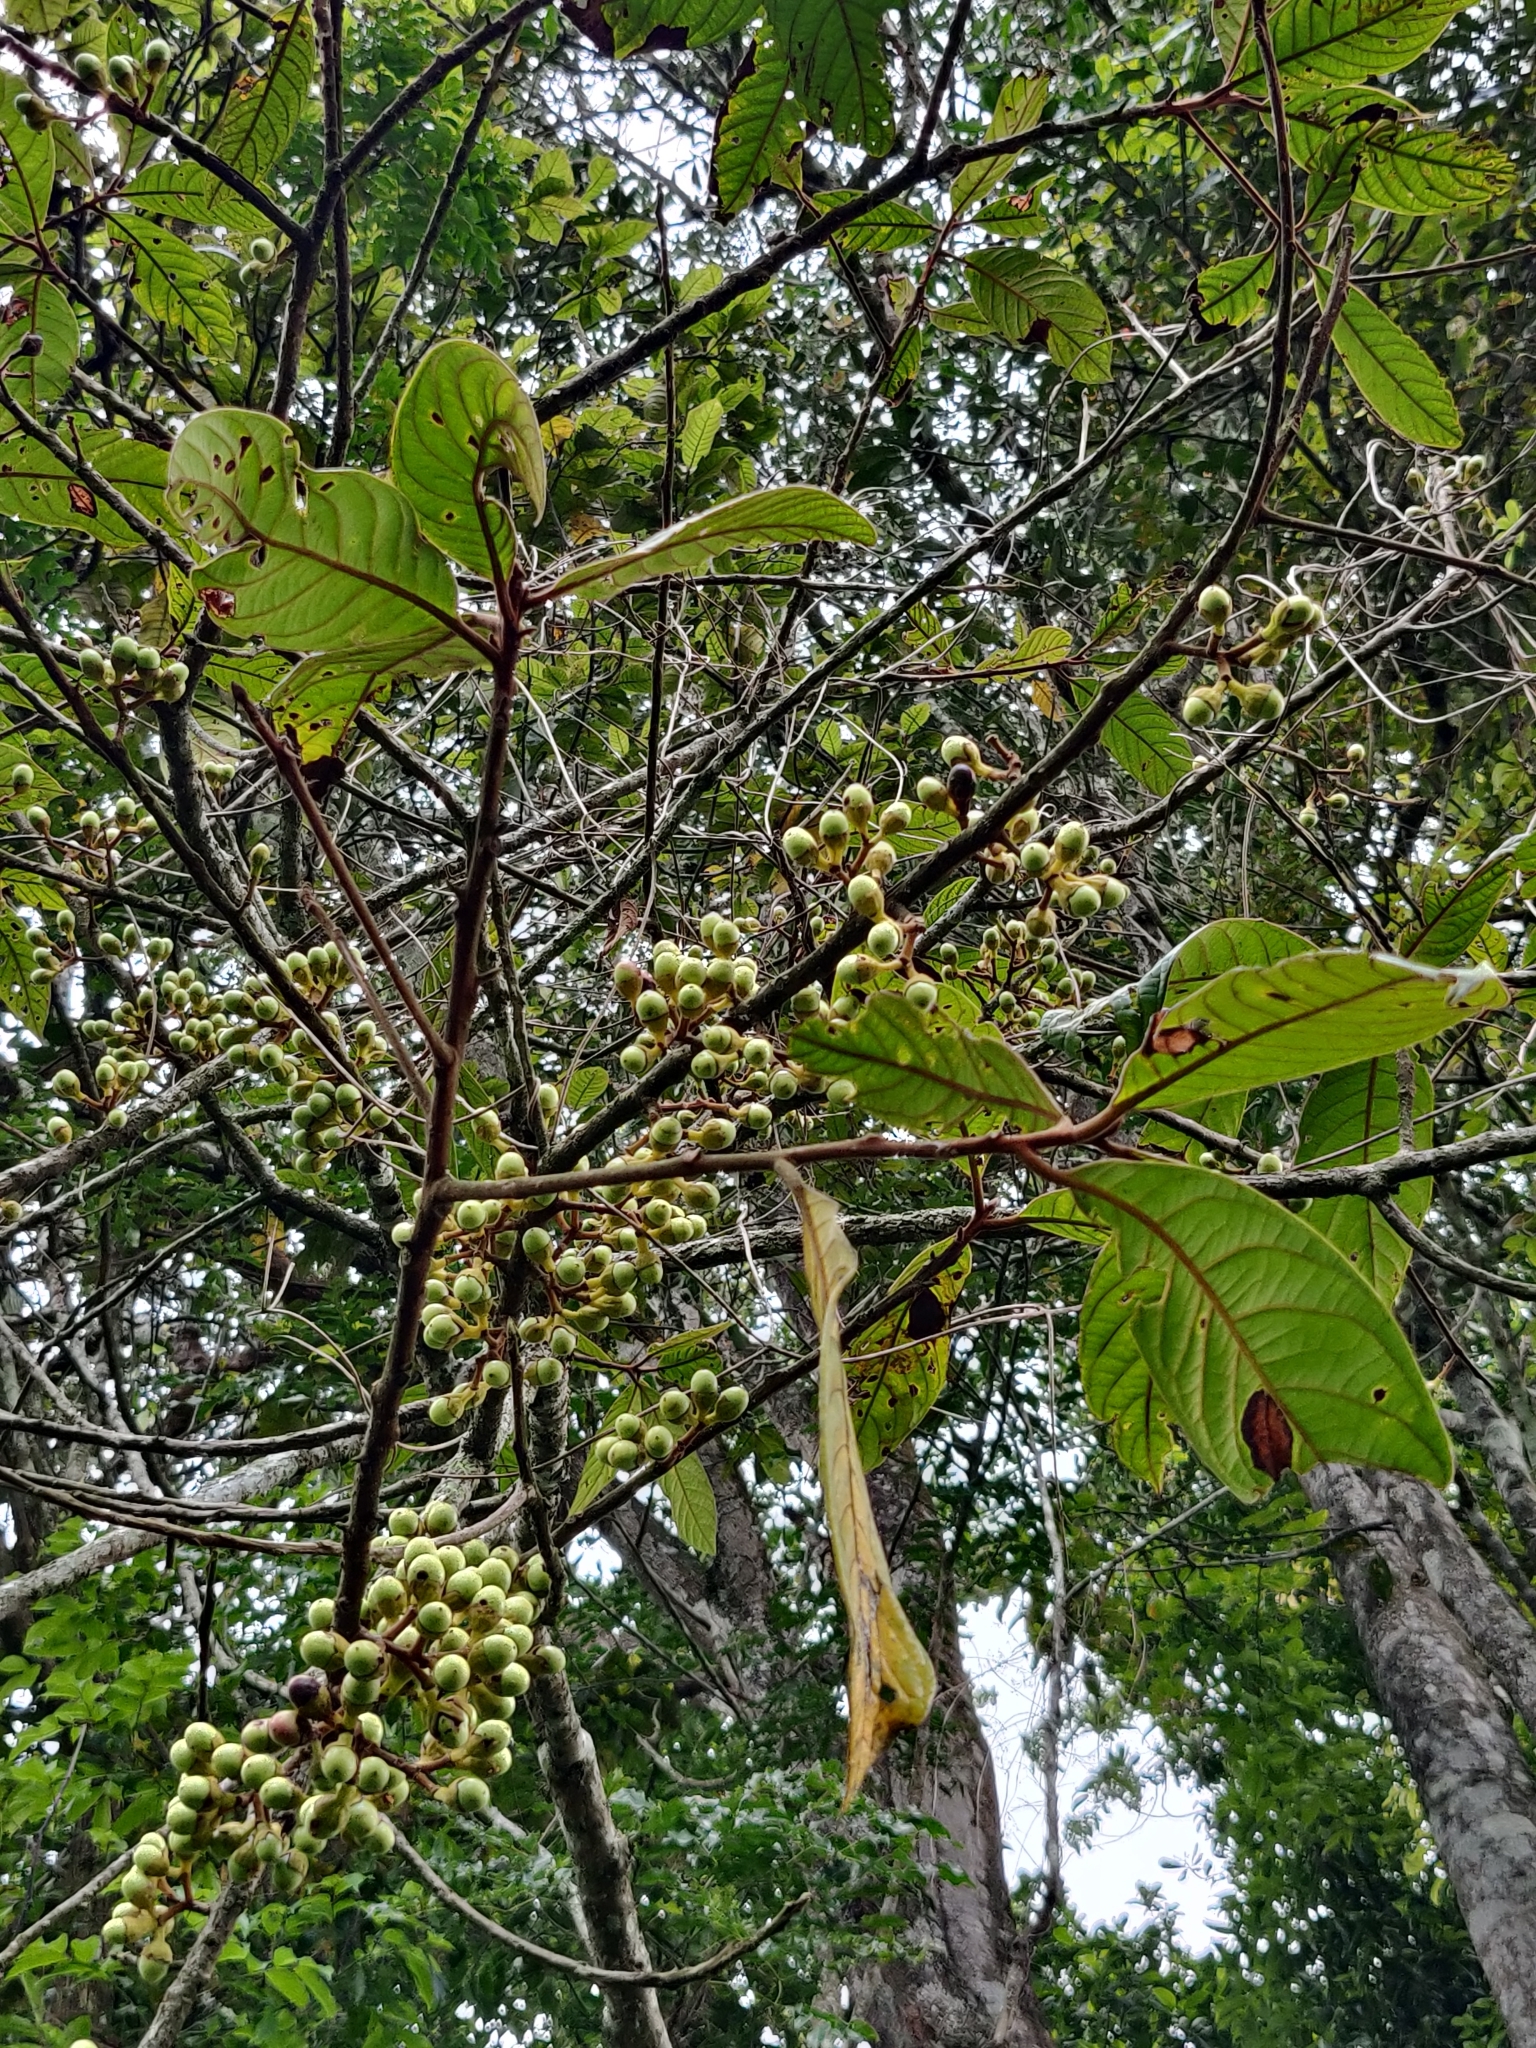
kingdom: Plantae
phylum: Tracheophyta
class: Magnoliopsida
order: Laurales
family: Lauraceae
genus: Litsea
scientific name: Litsea floribunda
